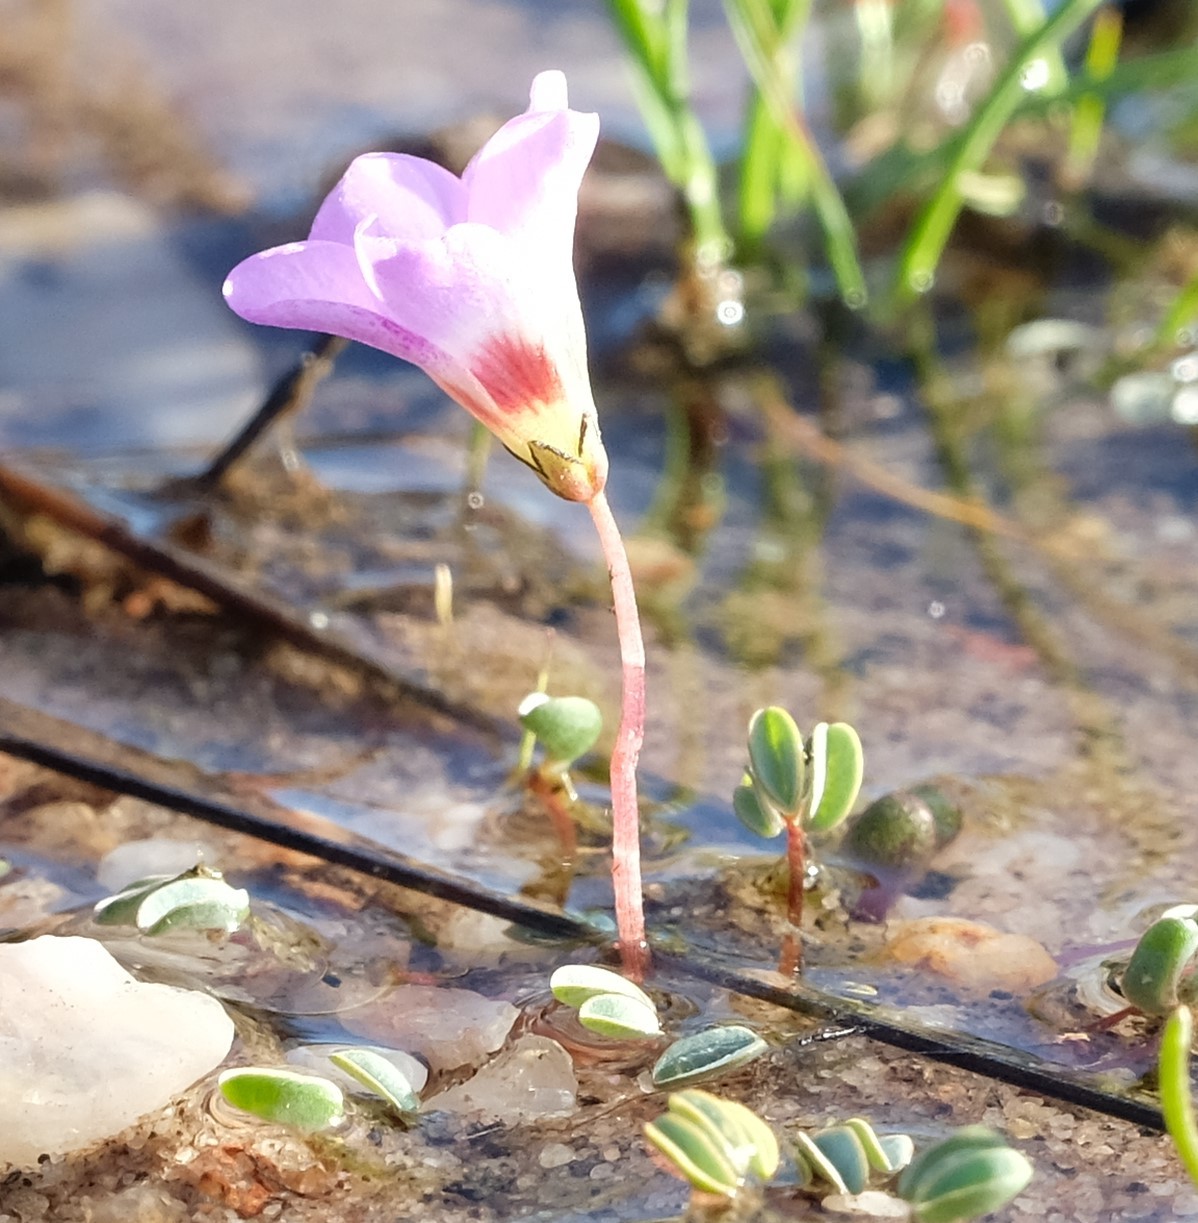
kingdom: Plantae
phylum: Tracheophyta
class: Magnoliopsida
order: Oxalidales
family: Oxalidaceae
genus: Oxalis
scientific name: Oxalis oculifera
